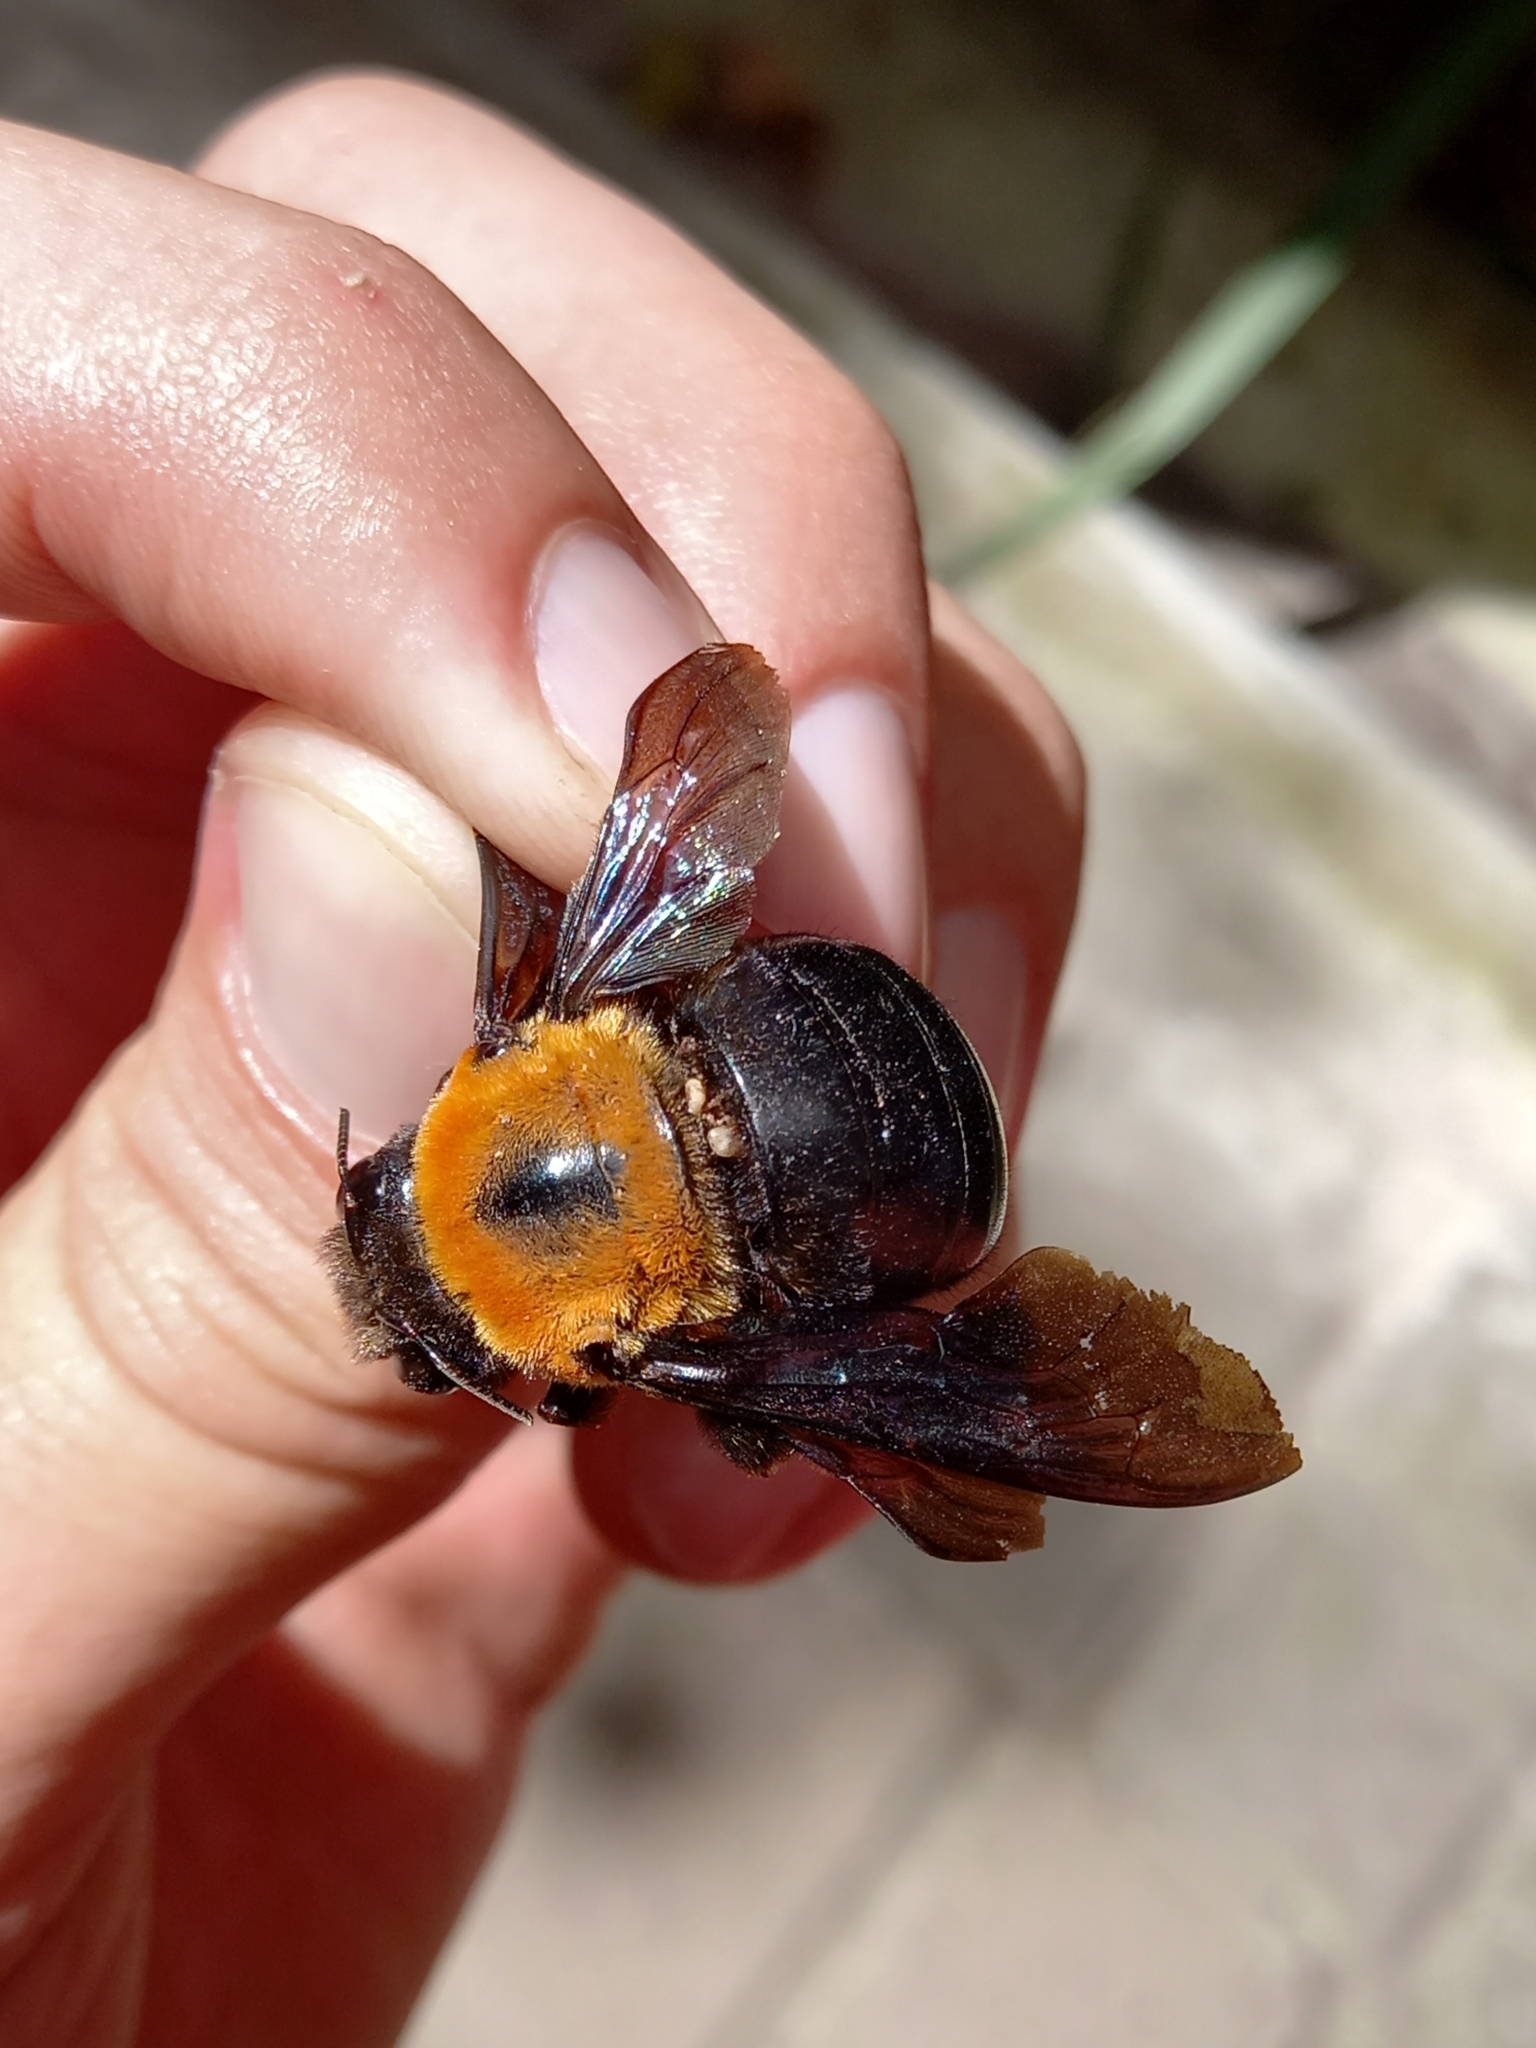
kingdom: Animalia
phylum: Arthropoda
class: Insecta
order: Hymenoptera
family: Apidae
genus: Xylocopa
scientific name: Xylocopa flavorufa
